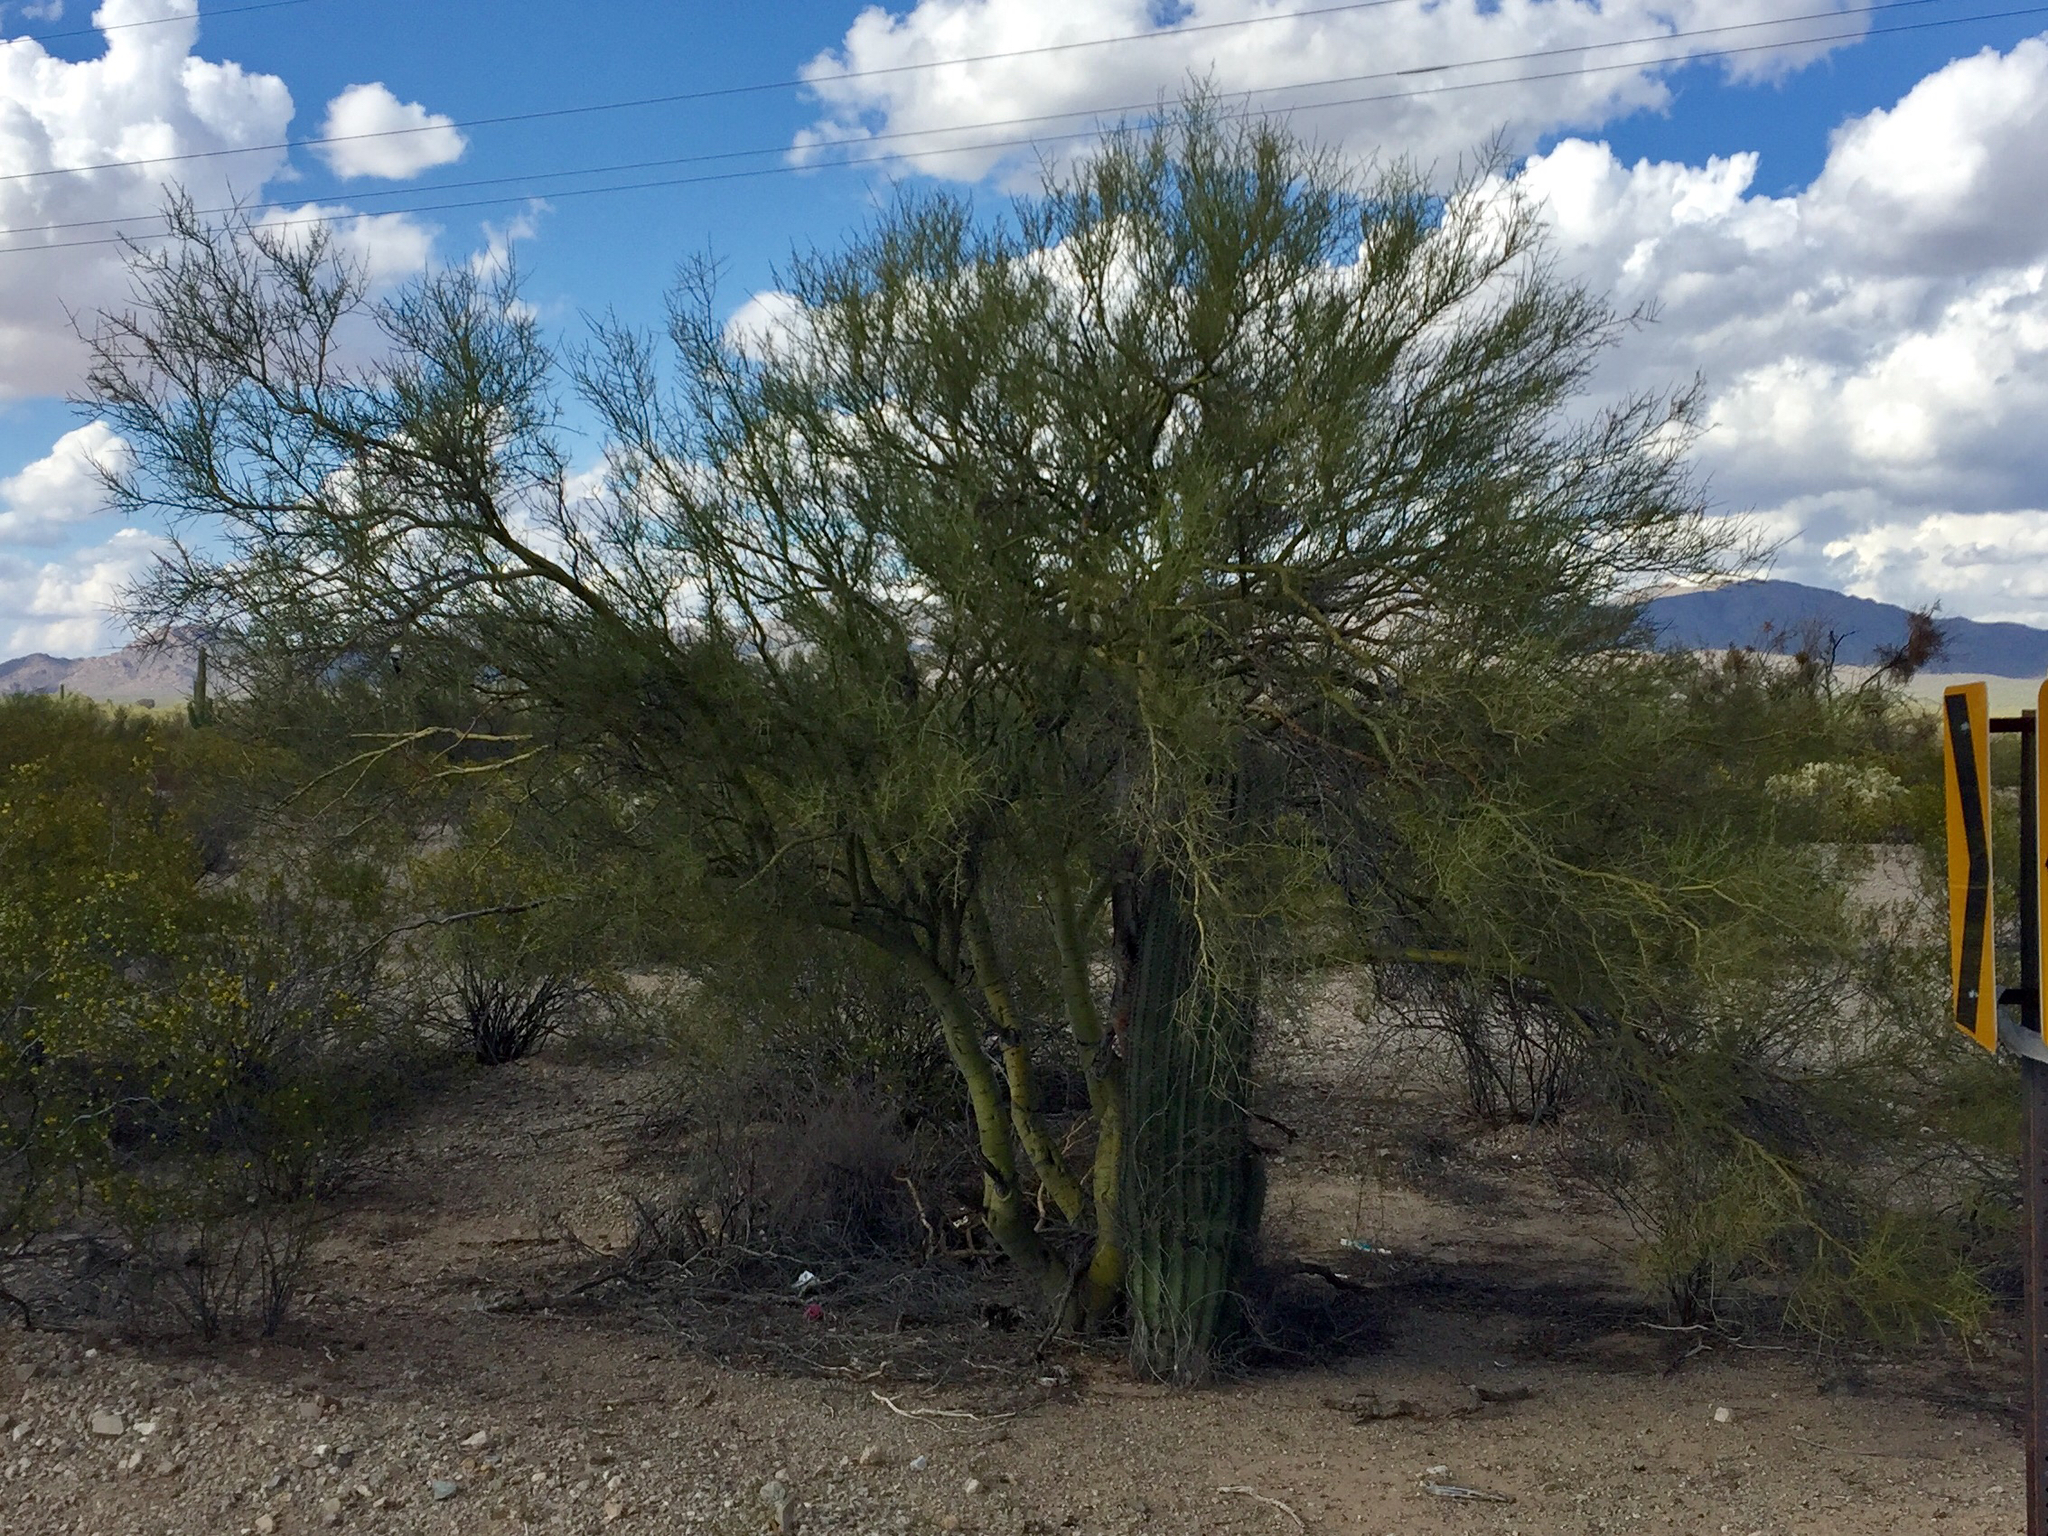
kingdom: Plantae
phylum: Tracheophyta
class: Magnoliopsida
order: Fabales
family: Fabaceae
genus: Parkinsonia
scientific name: Parkinsonia microphylla
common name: Yellow paloverde
